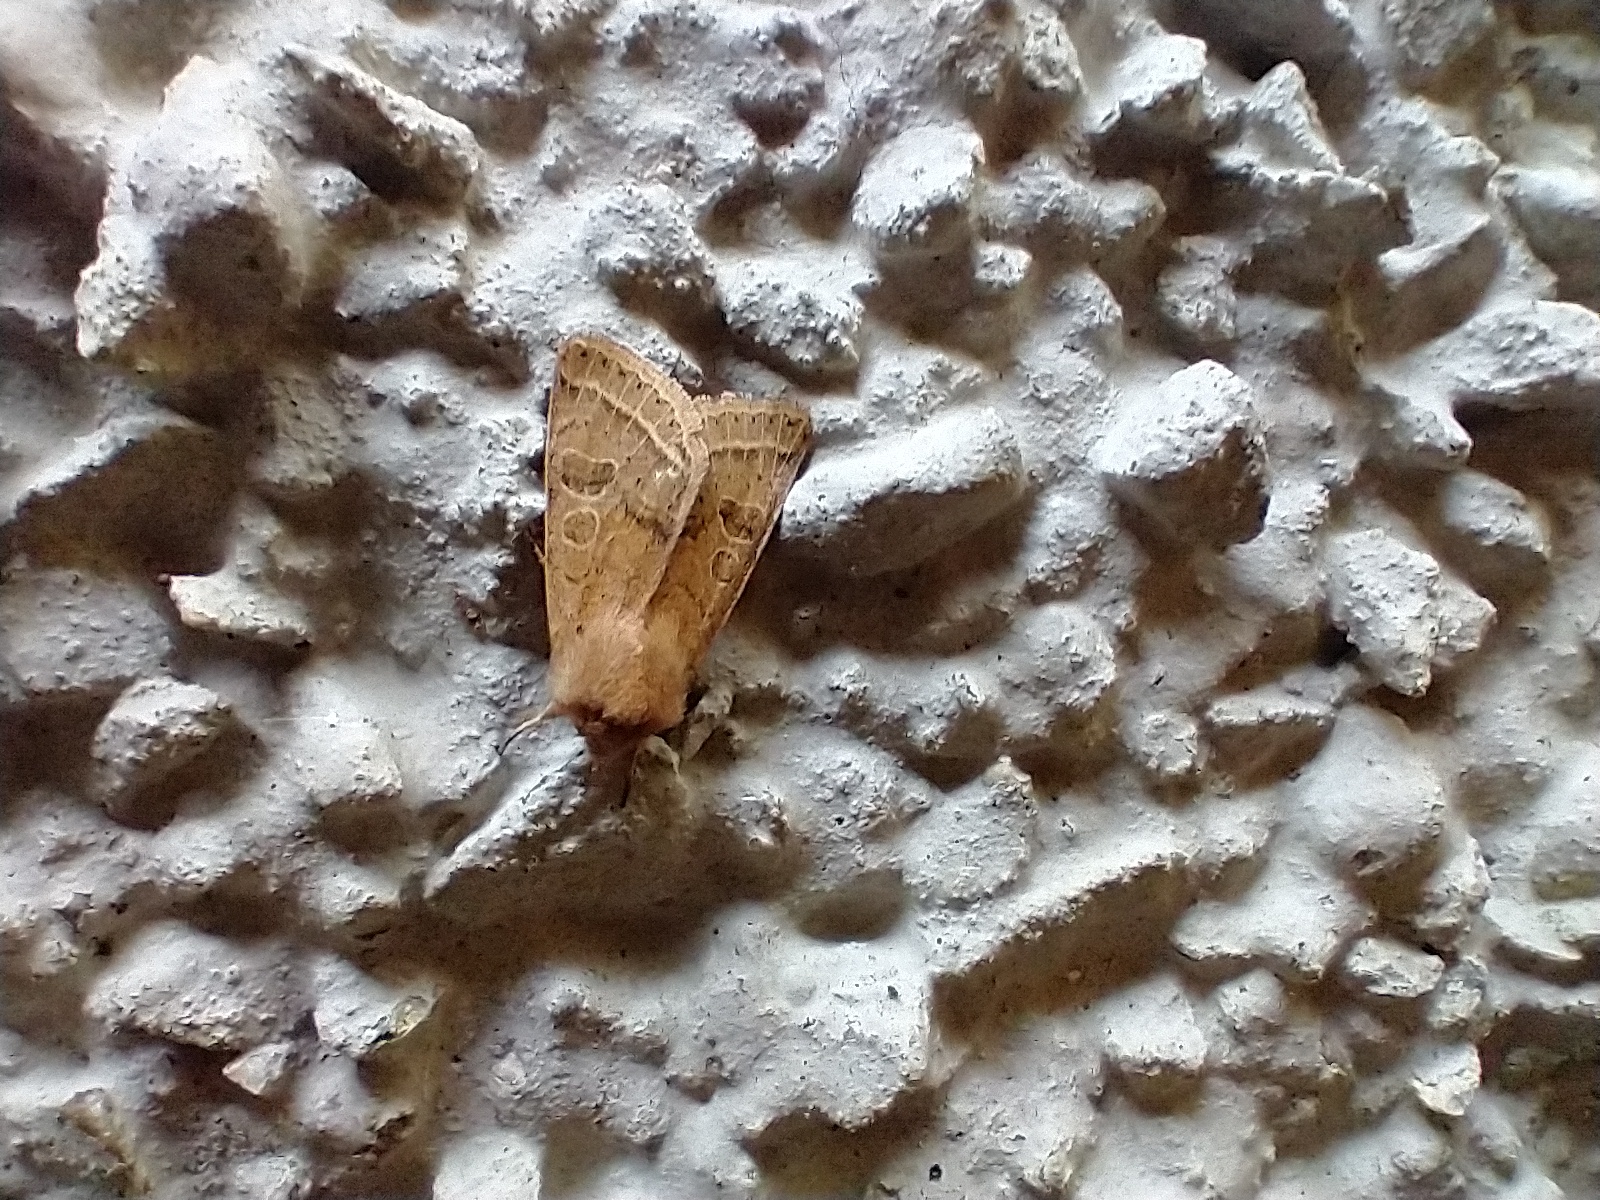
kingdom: Animalia
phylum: Arthropoda
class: Insecta
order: Lepidoptera
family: Noctuidae
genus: Orthosia
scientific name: Orthosia cerasi
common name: Common quaker
